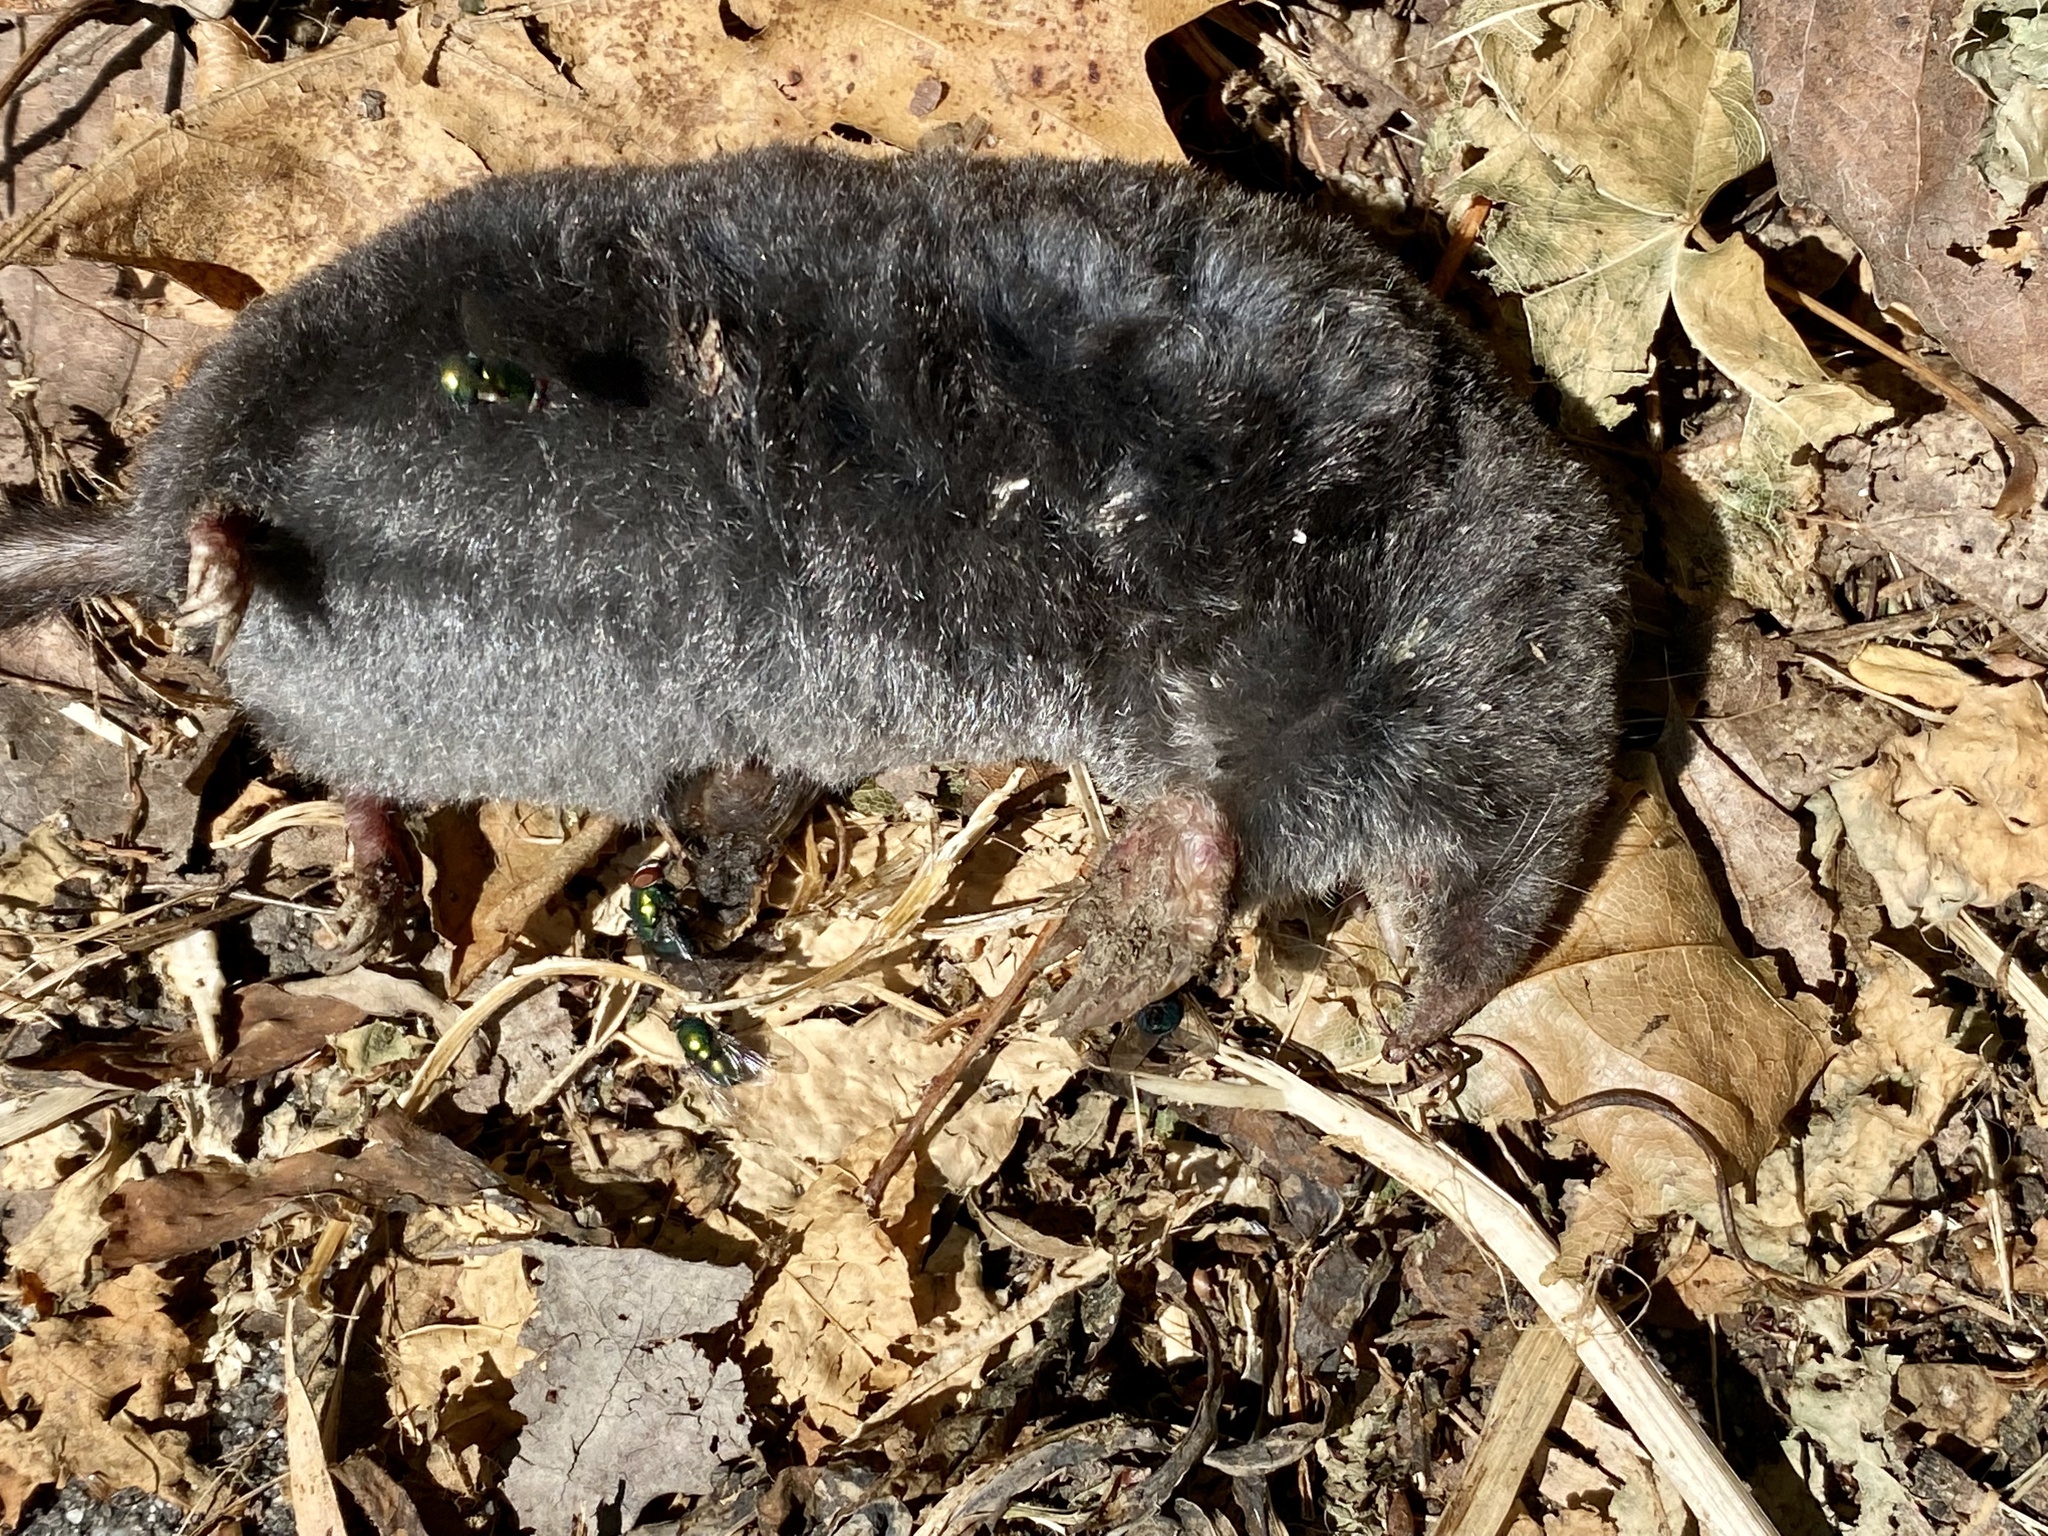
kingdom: Animalia
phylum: Chordata
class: Mammalia
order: Soricomorpha
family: Talpidae
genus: Parascalops
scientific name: Parascalops breweri
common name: Hairy-tailed mole
